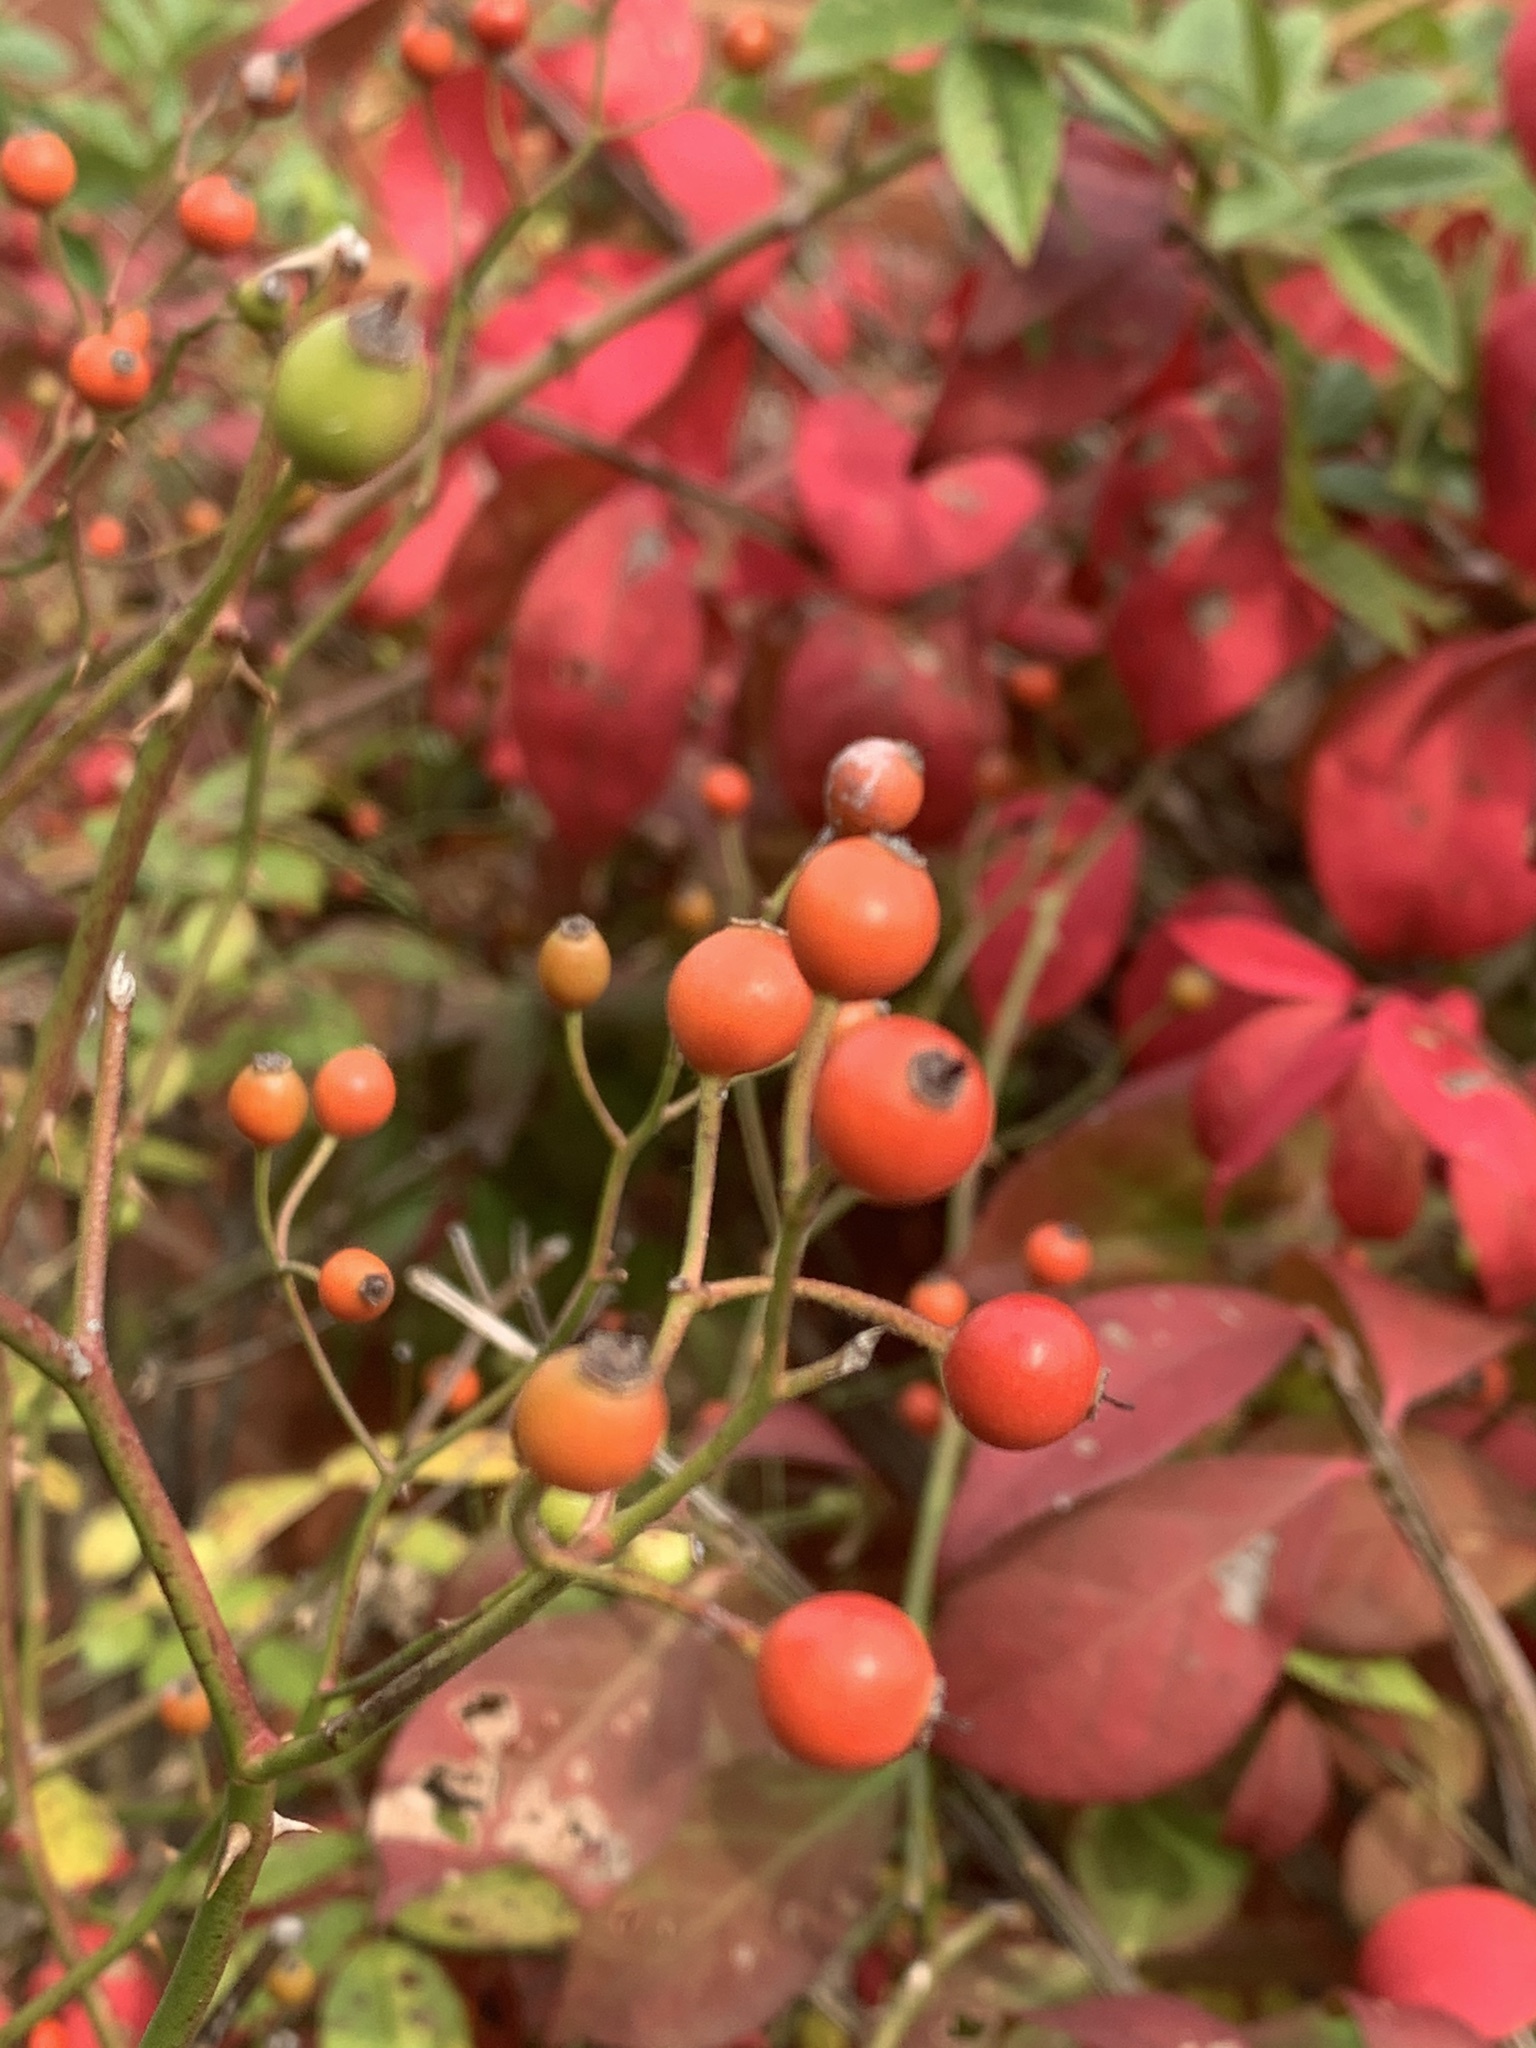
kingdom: Plantae
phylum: Tracheophyta
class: Magnoliopsida
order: Rosales
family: Rosaceae
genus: Rosa
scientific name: Rosa multiflora
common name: Multiflora rose
